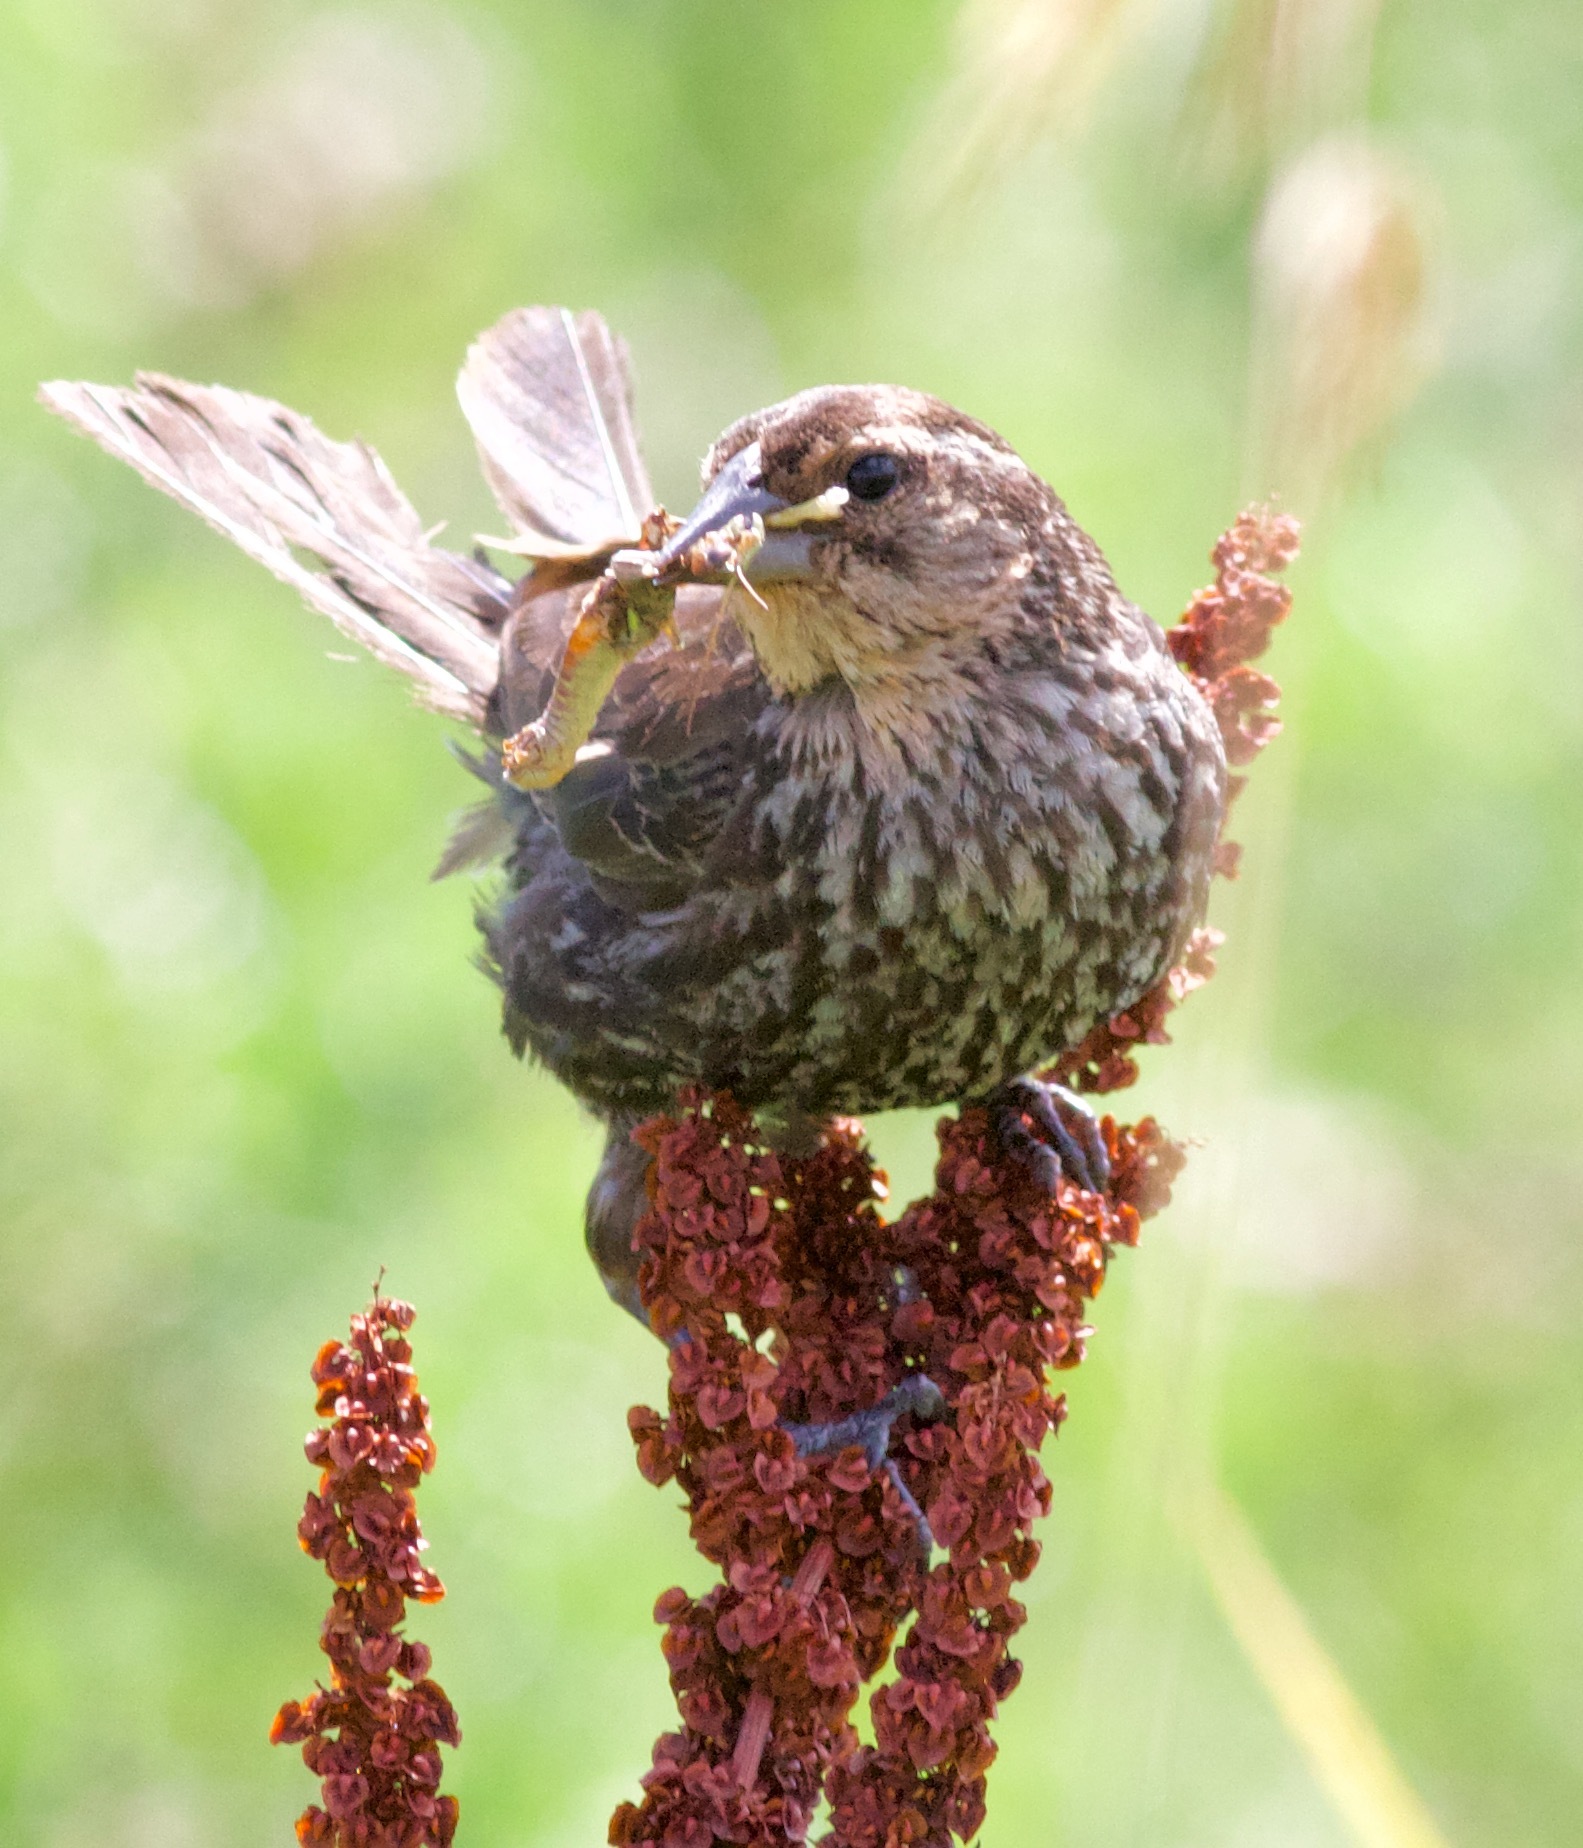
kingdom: Animalia
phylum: Chordata
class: Aves
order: Passeriformes
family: Icteridae
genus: Agelaius
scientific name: Agelaius phoeniceus
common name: Red-winged blackbird
